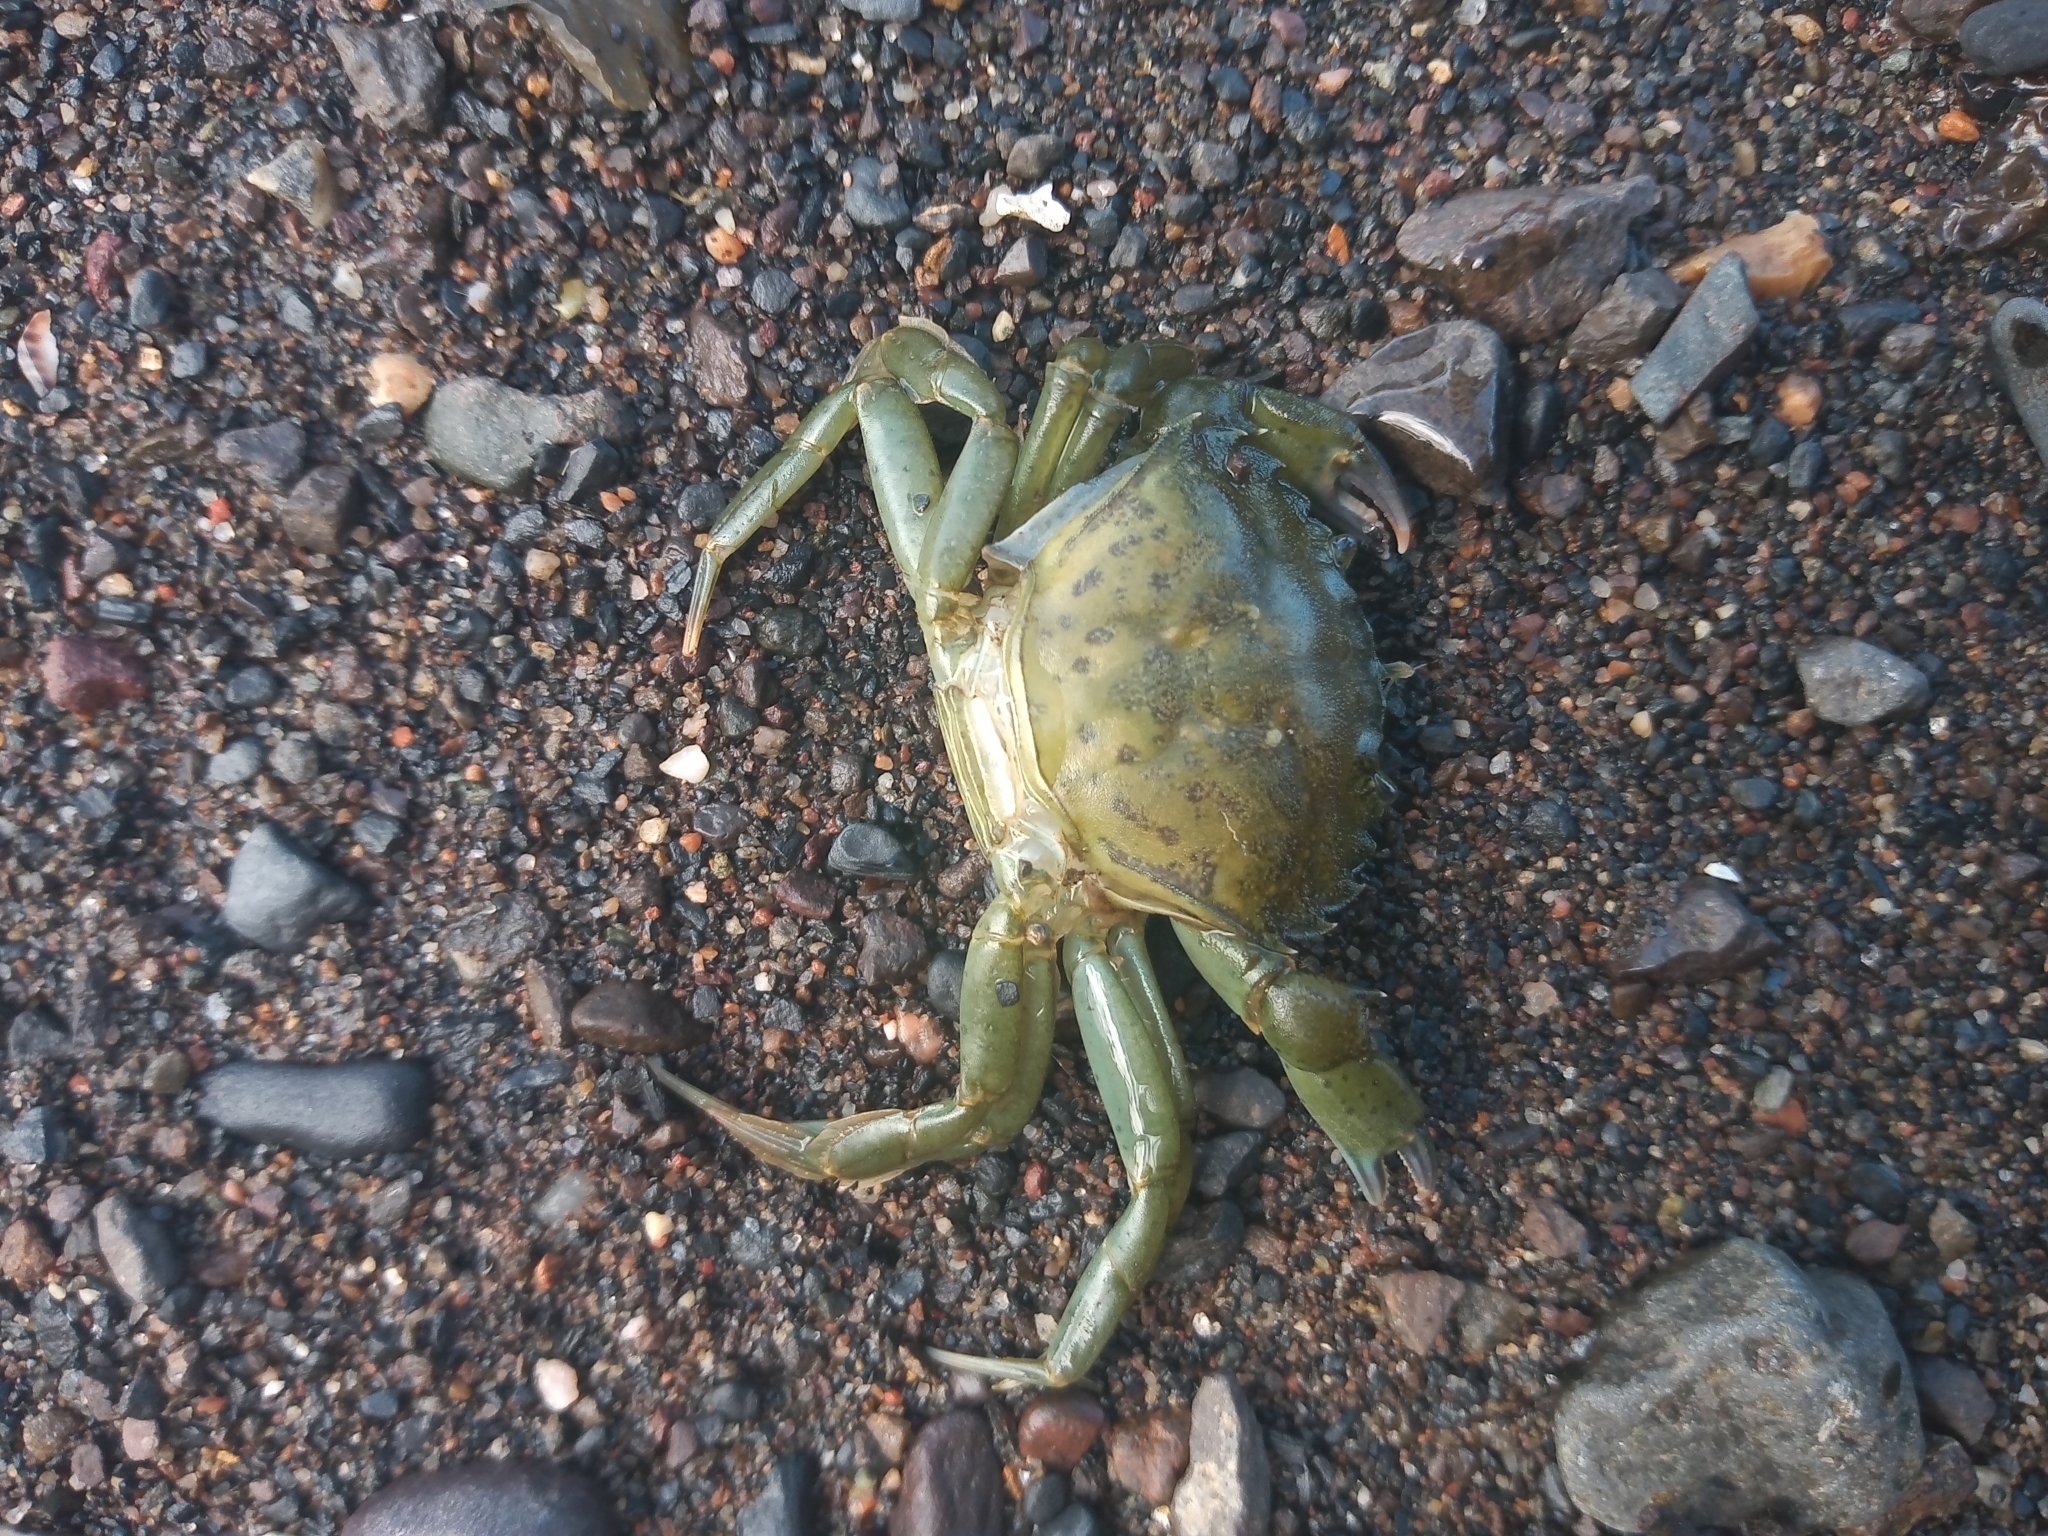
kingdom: Animalia
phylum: Arthropoda
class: Malacostraca
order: Decapoda
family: Carcinidae
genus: Carcinus
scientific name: Carcinus maenas
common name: European green crab
